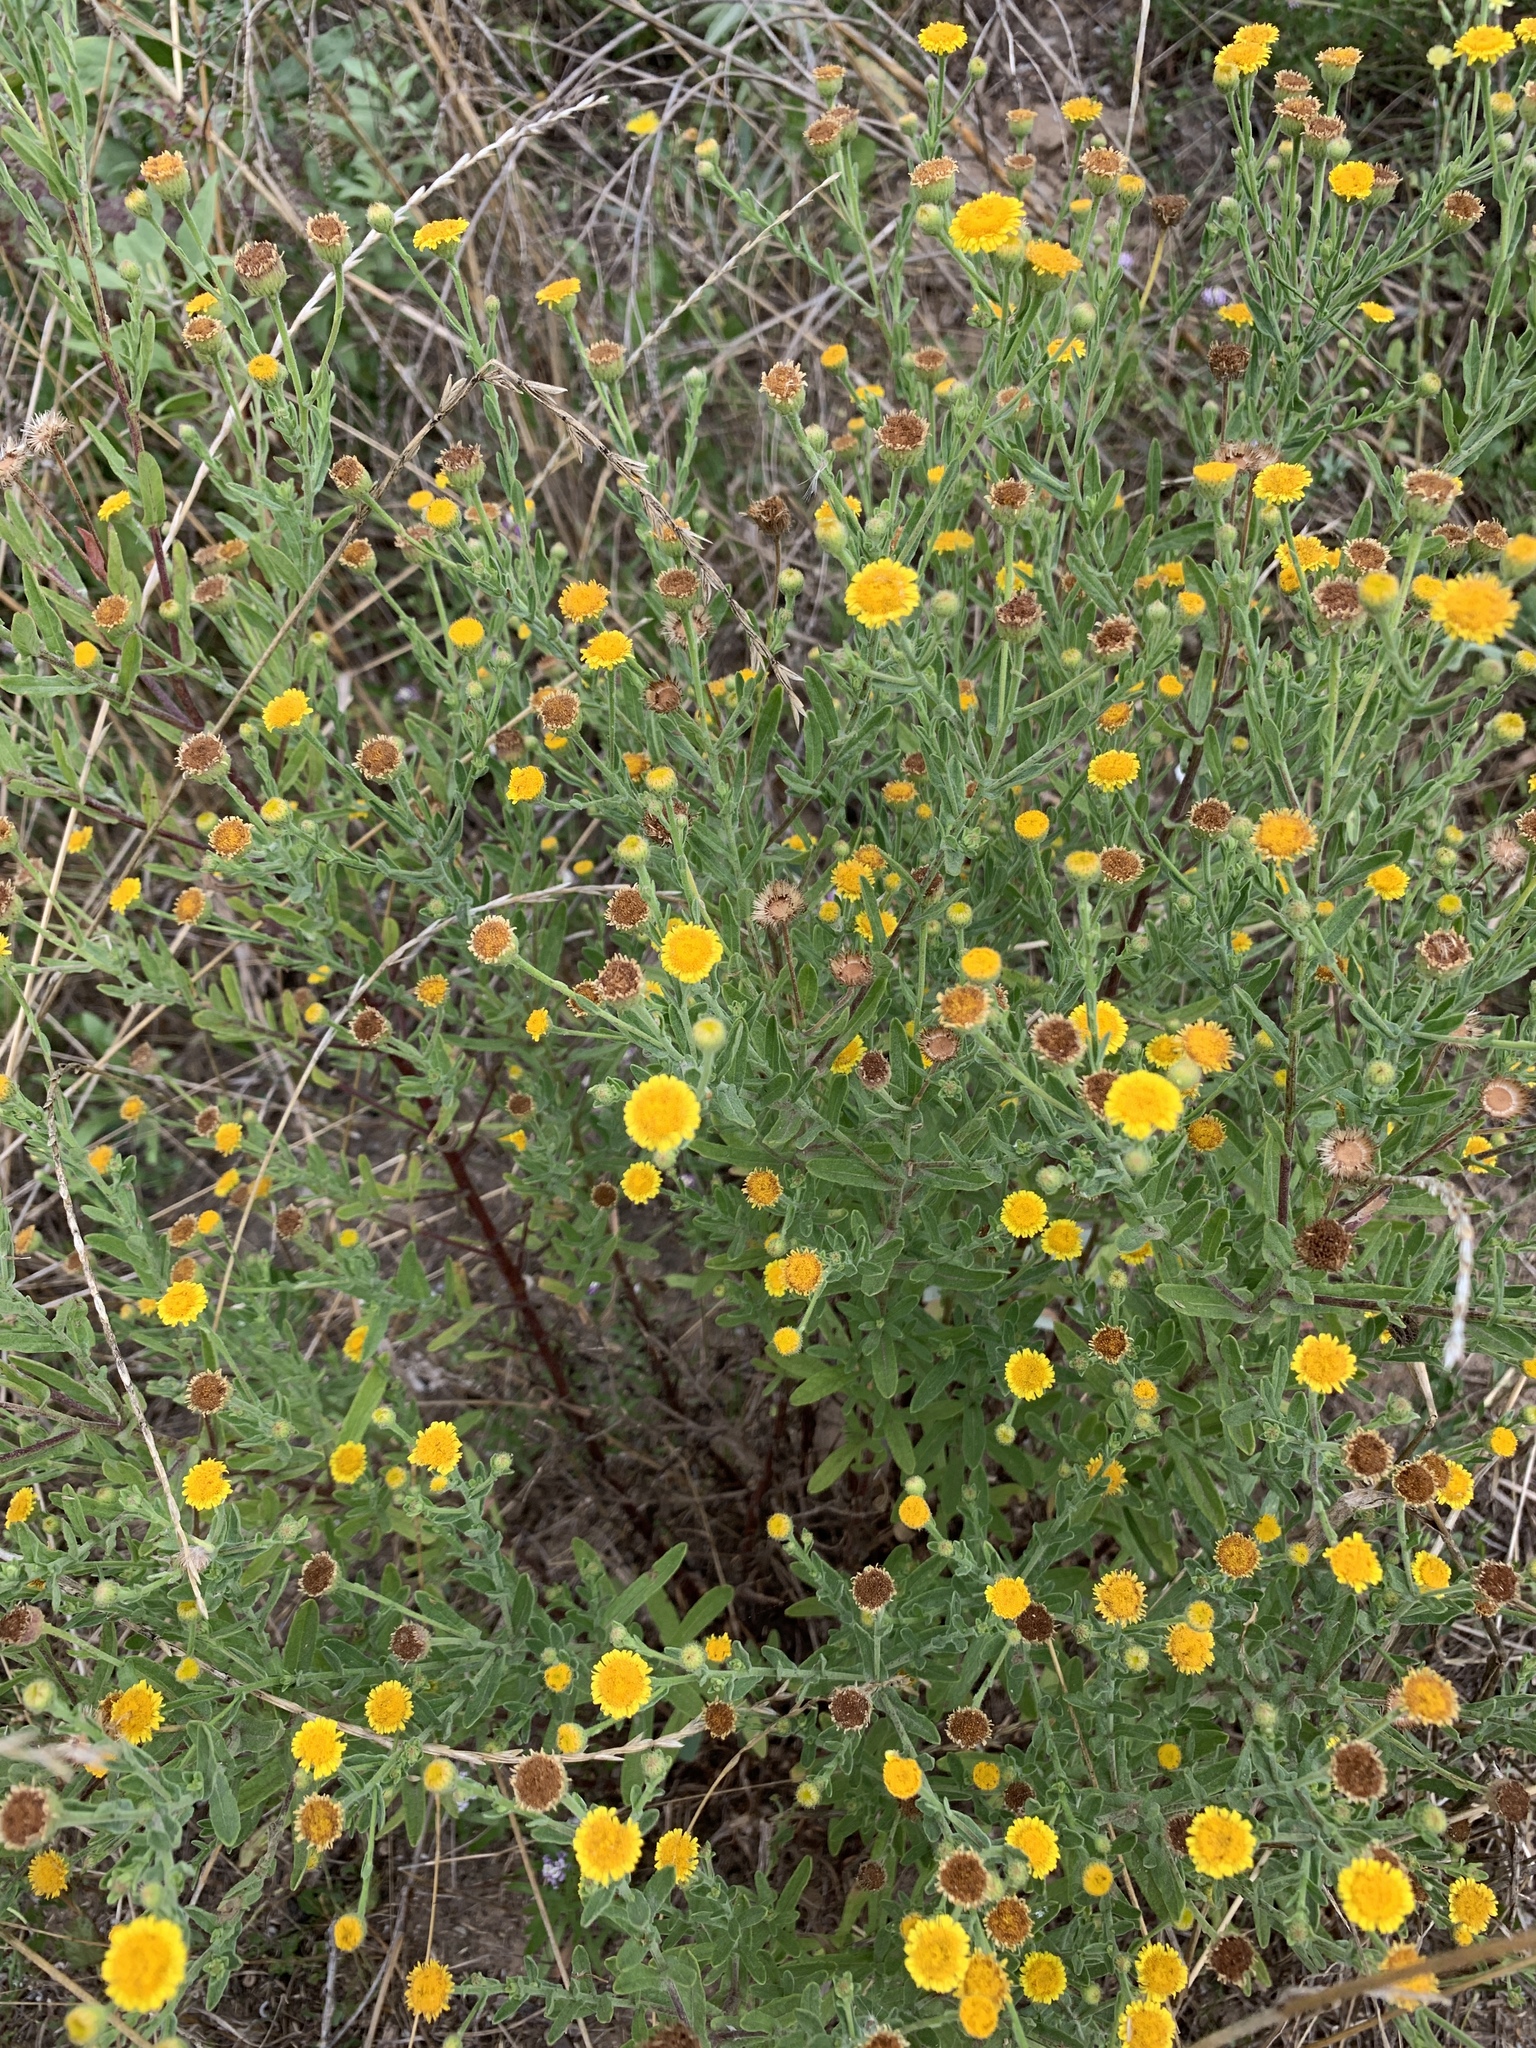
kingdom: Plantae
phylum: Tracheophyta
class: Magnoliopsida
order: Asterales
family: Asteraceae
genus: Pulicaria
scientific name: Pulicaria paludosa
